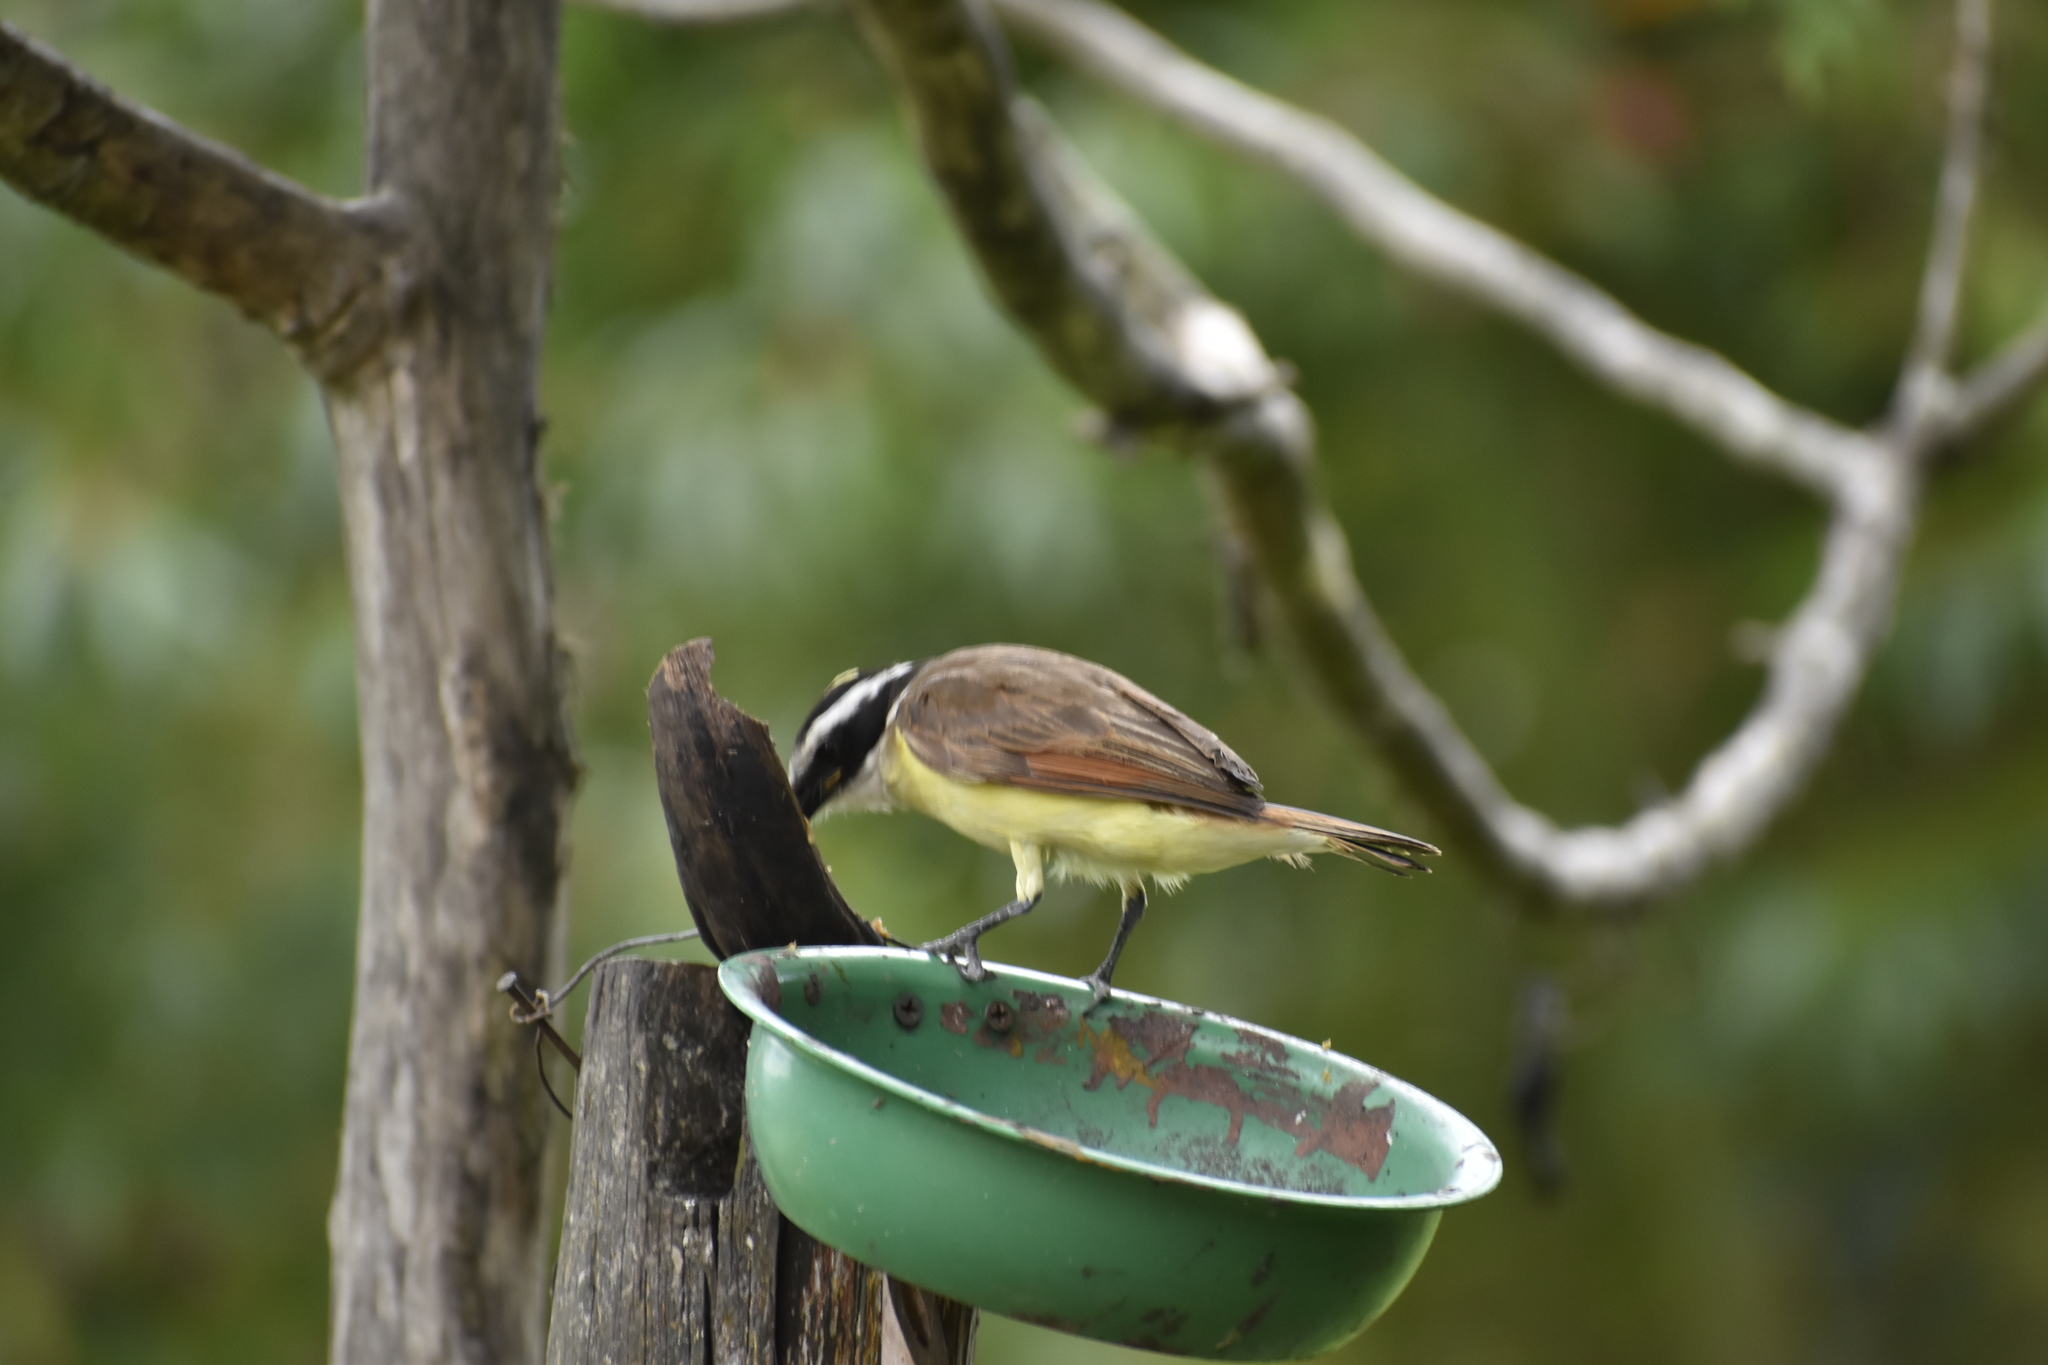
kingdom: Animalia
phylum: Chordata
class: Aves
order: Passeriformes
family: Tyrannidae
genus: Pitangus
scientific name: Pitangus sulphuratus
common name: Great kiskadee
